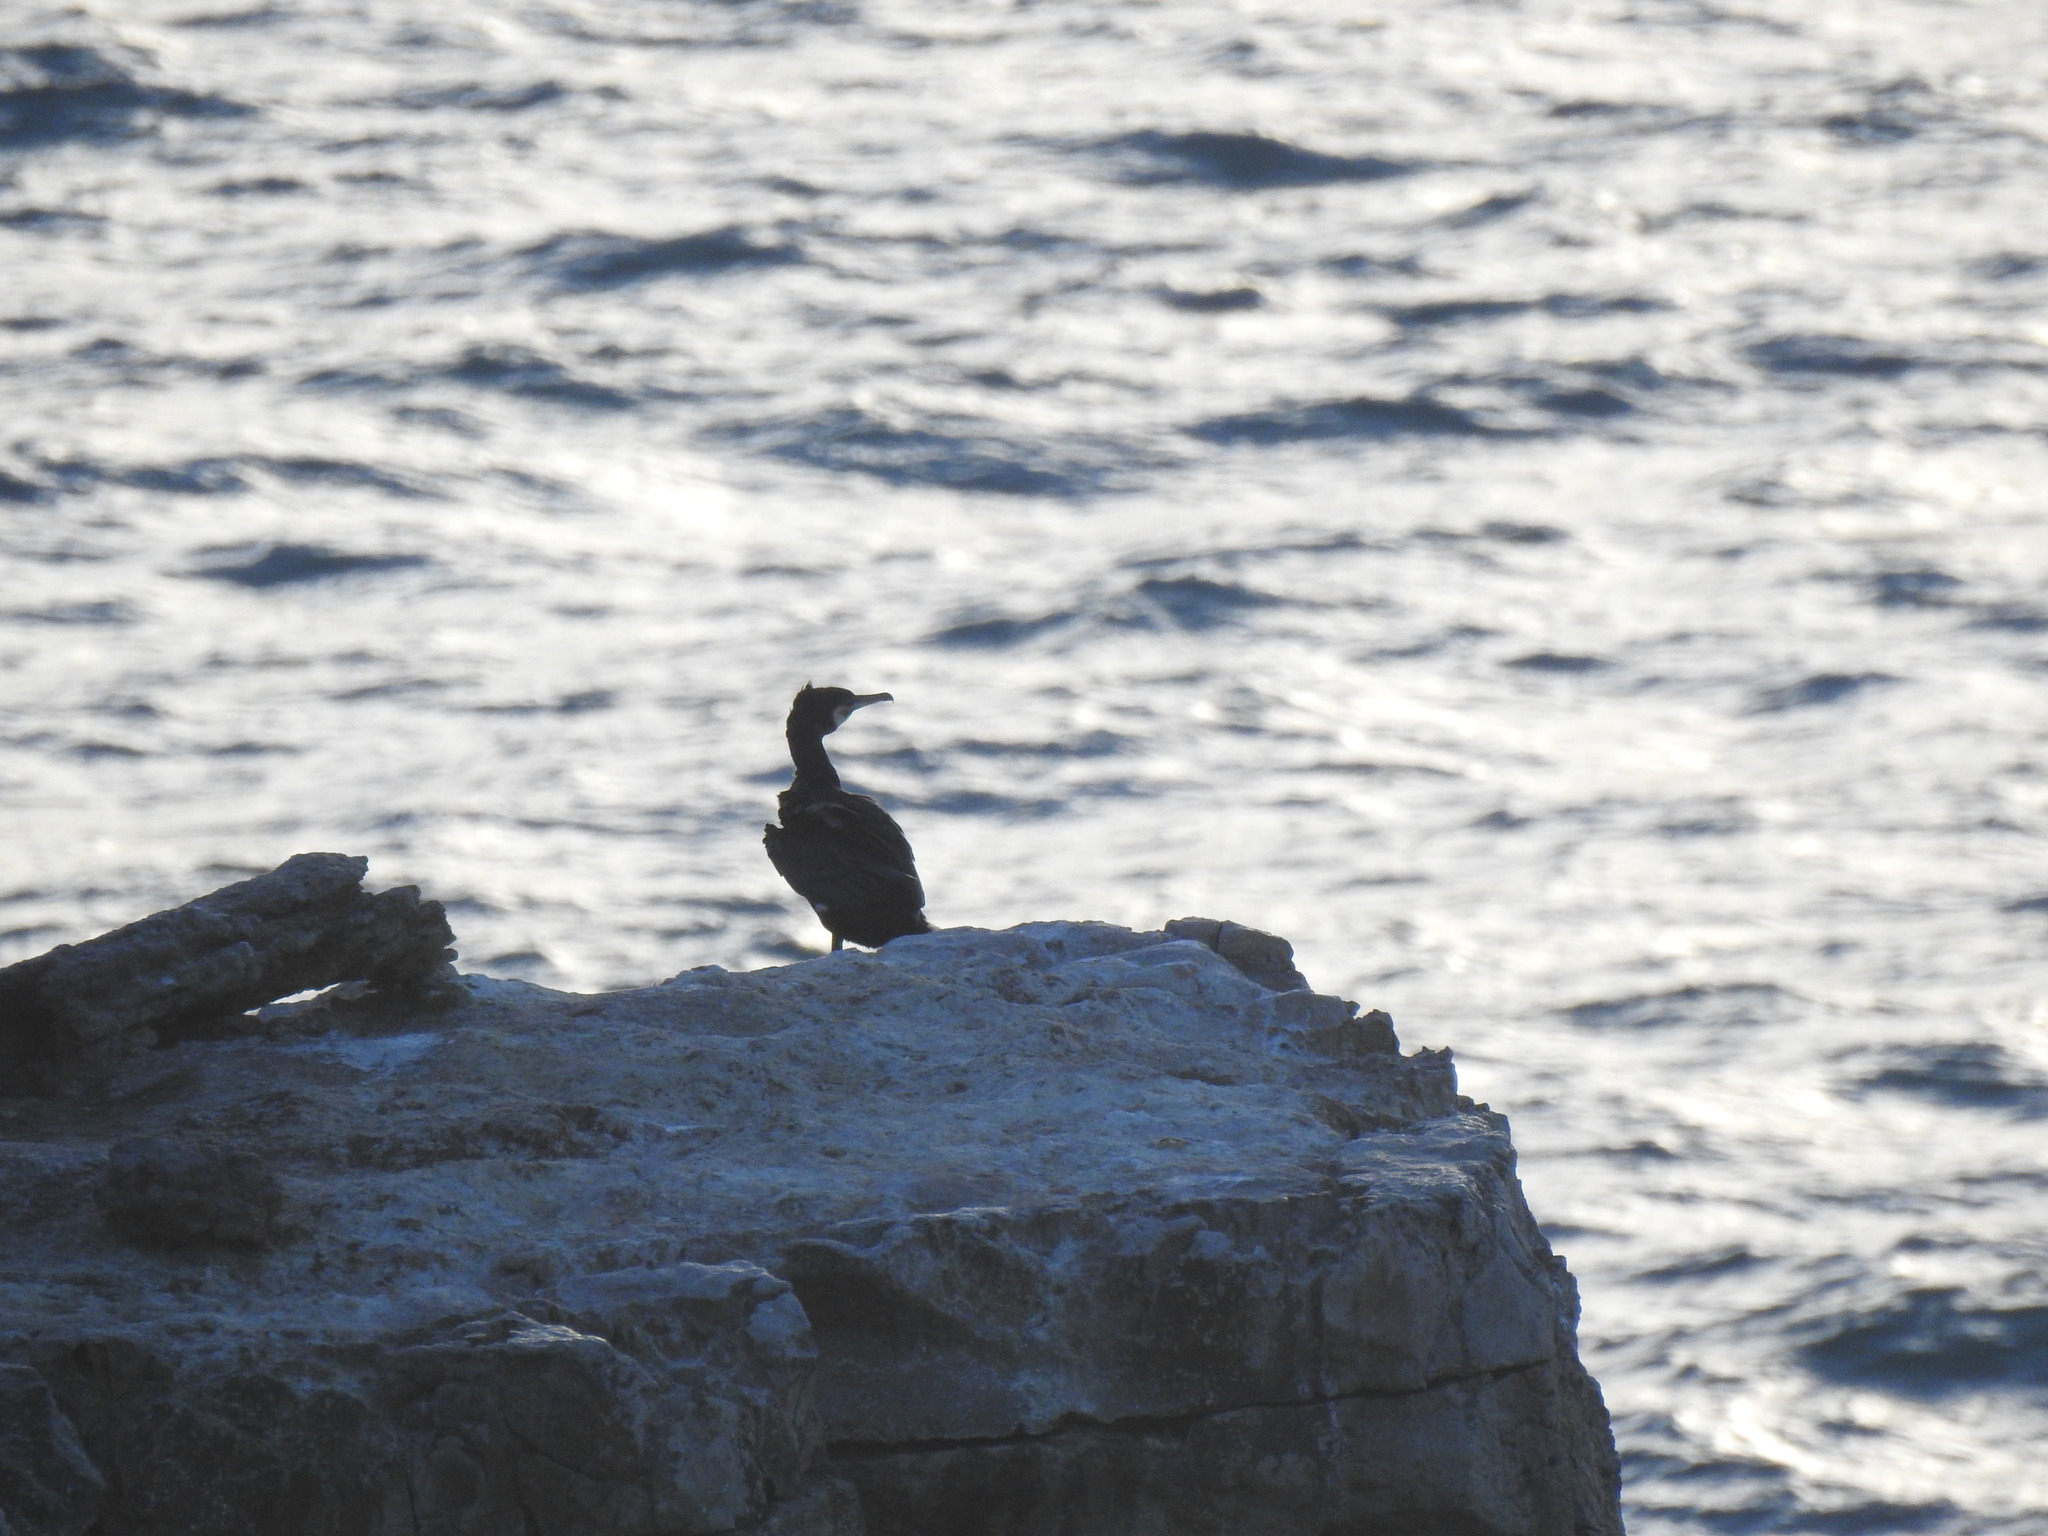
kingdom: Animalia
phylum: Chordata
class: Aves
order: Suliformes
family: Phalacrocoracidae
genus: Phalacrocorax
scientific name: Phalacrocorax carbo
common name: Great cormorant
